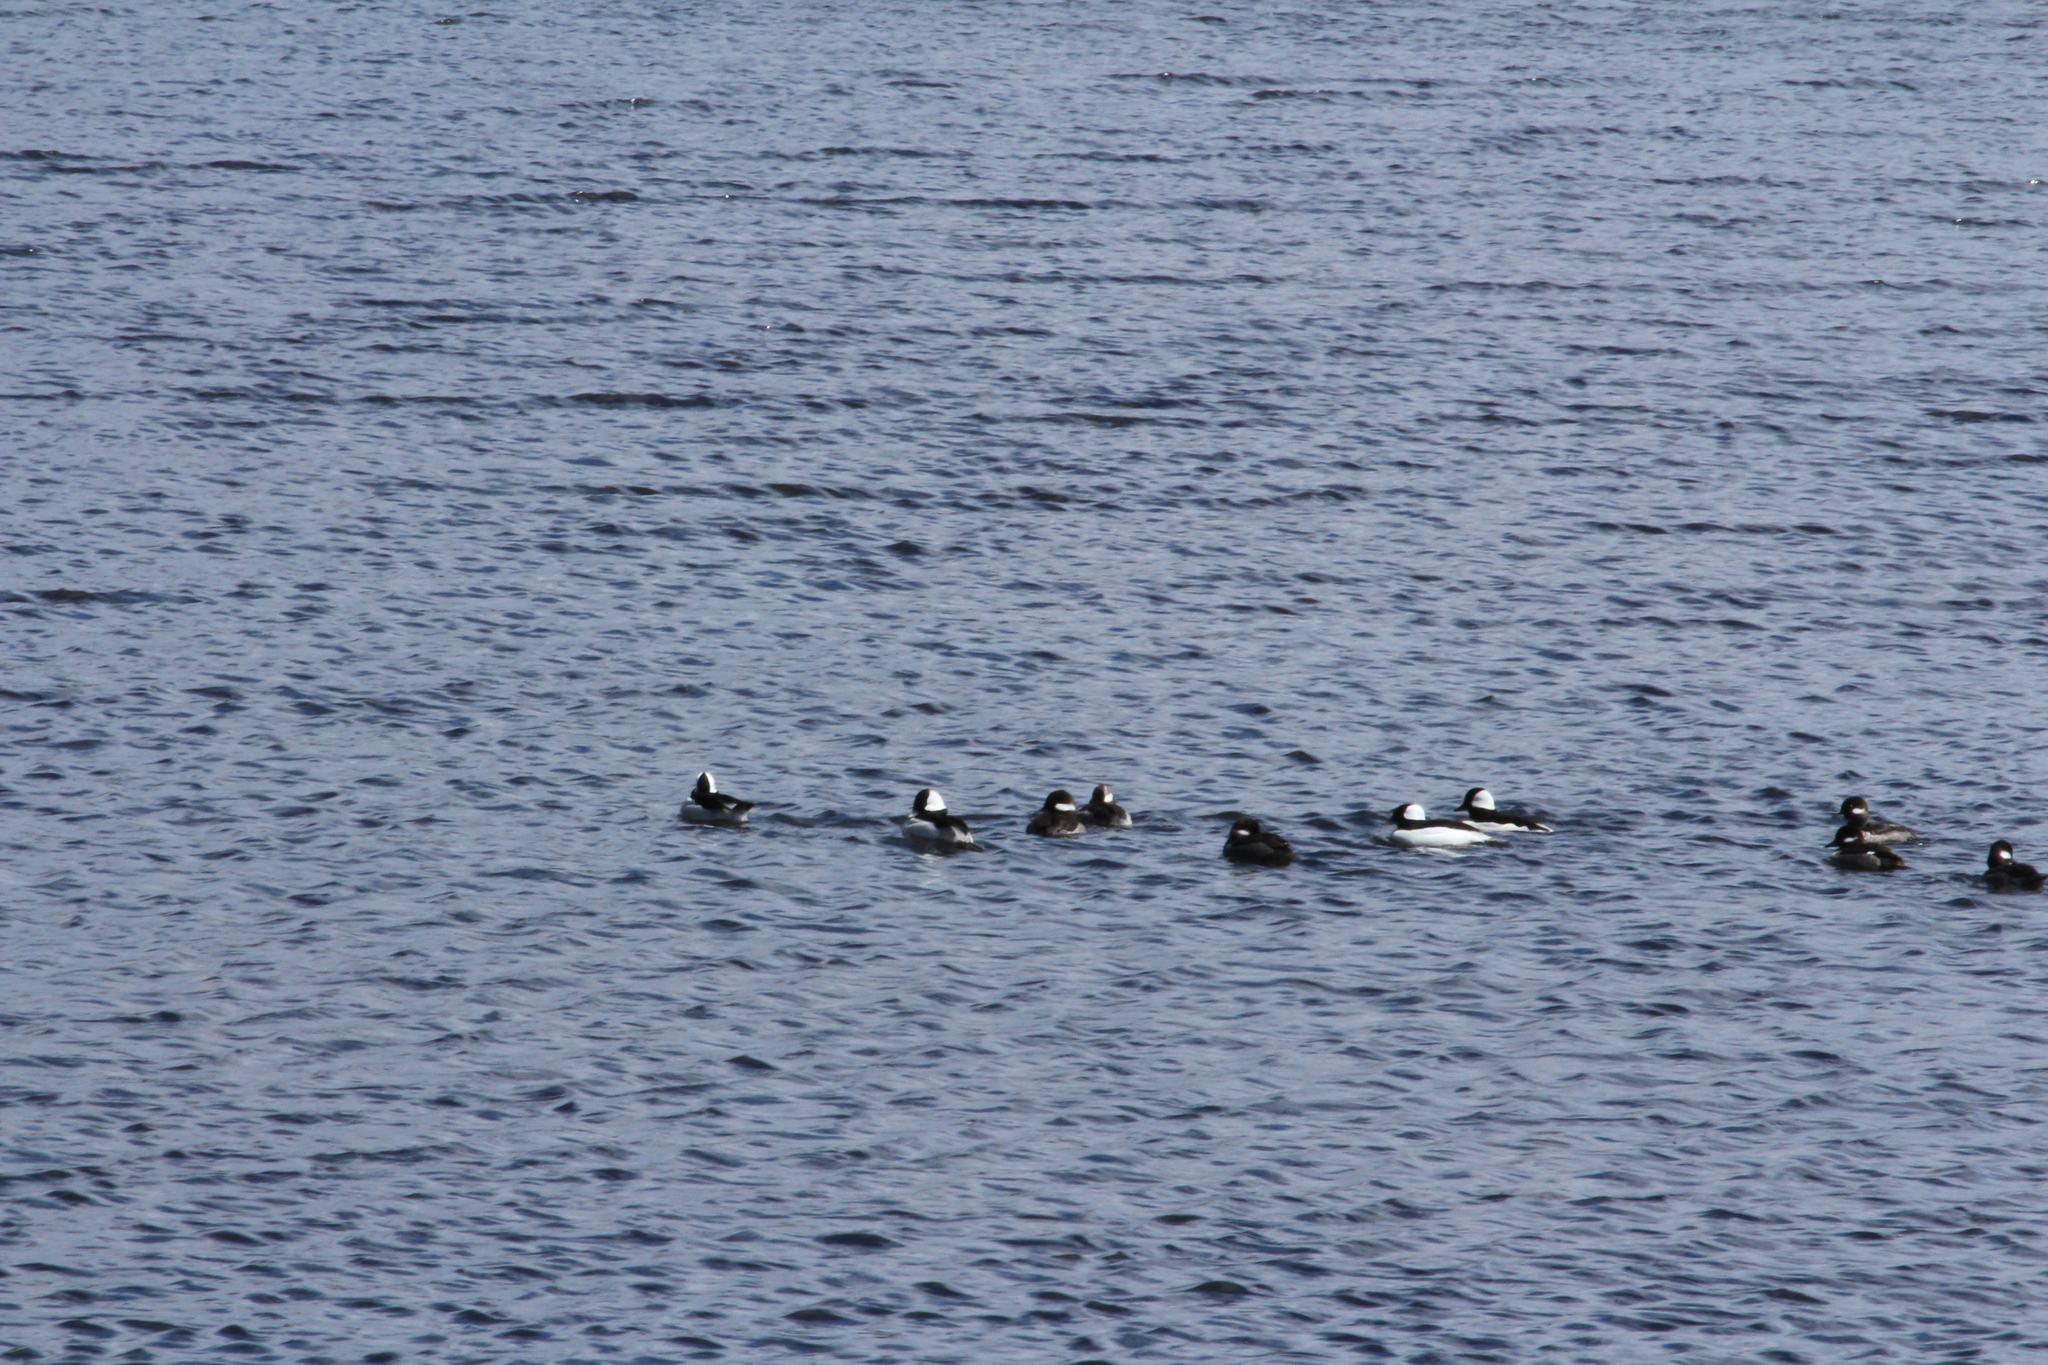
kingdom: Animalia
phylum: Chordata
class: Aves
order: Anseriformes
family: Anatidae
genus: Bucephala
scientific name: Bucephala albeola
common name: Bufflehead
